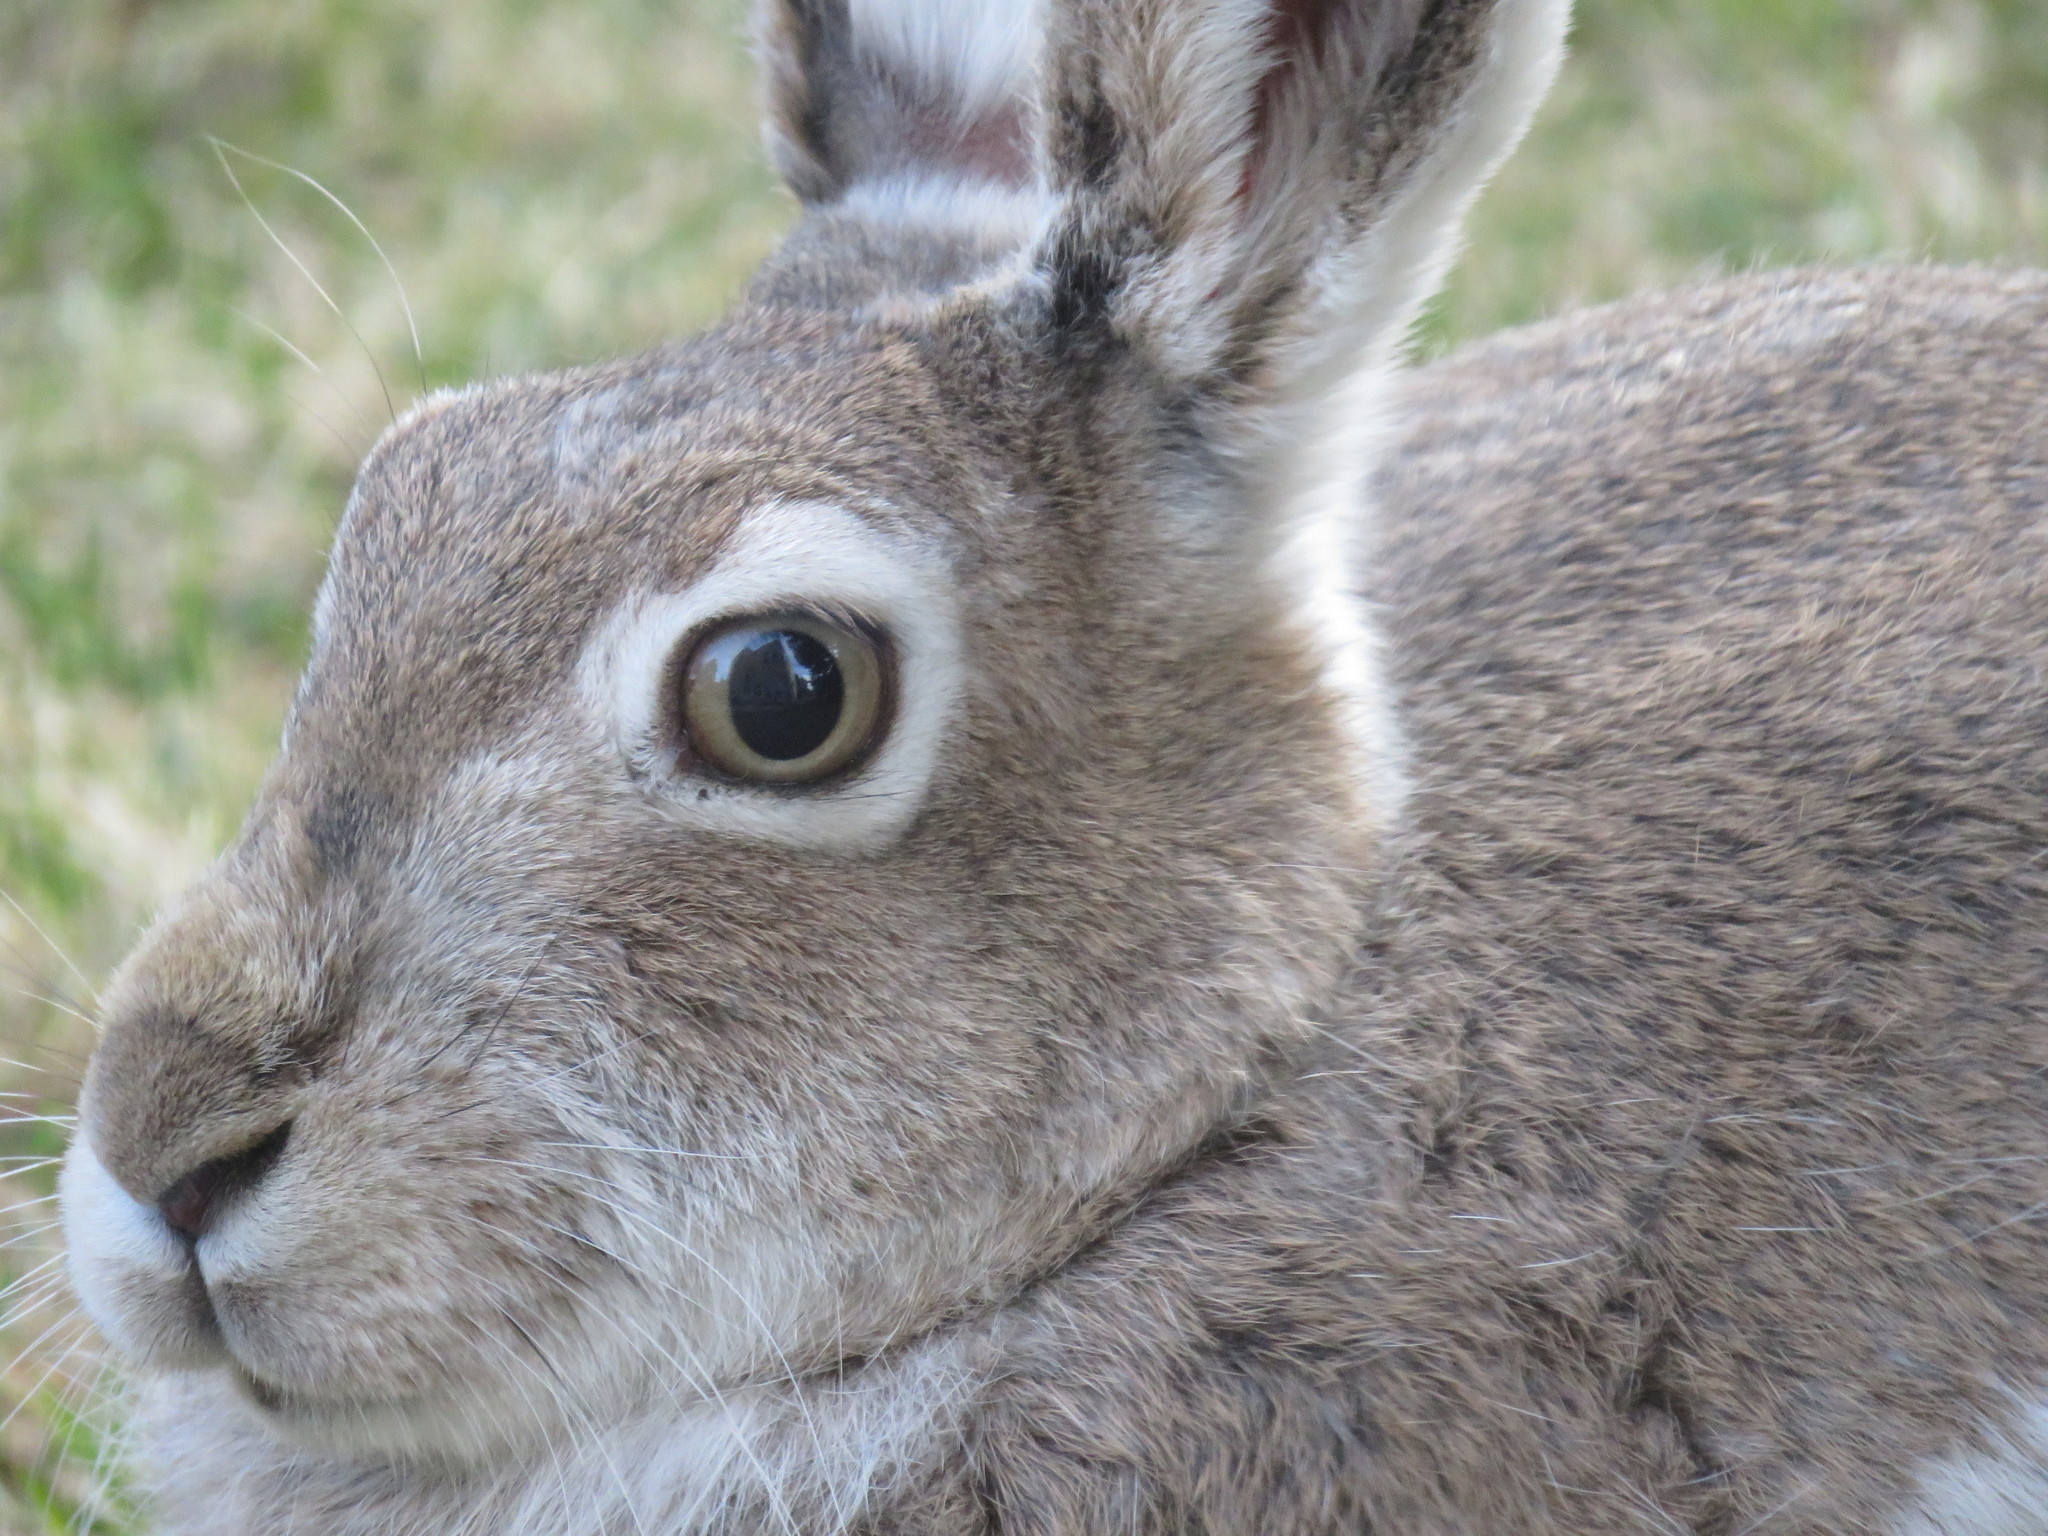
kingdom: Animalia
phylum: Chordata
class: Mammalia
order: Lagomorpha
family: Leporidae
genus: Lepus
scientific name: Lepus townsendii
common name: White-tailed jackrabbit
